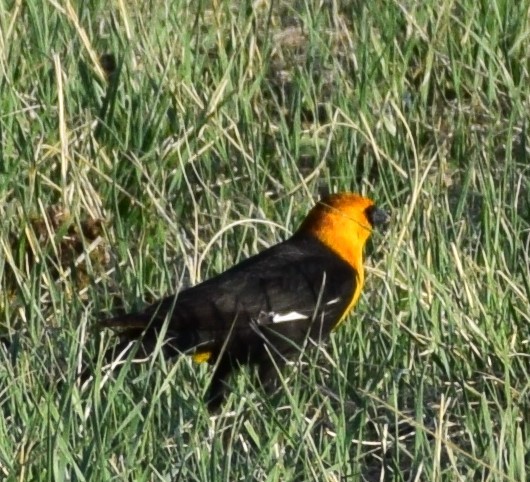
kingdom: Animalia
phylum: Chordata
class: Aves
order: Passeriformes
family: Icteridae
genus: Xanthocephalus
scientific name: Xanthocephalus xanthocephalus
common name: Yellow-headed blackbird
